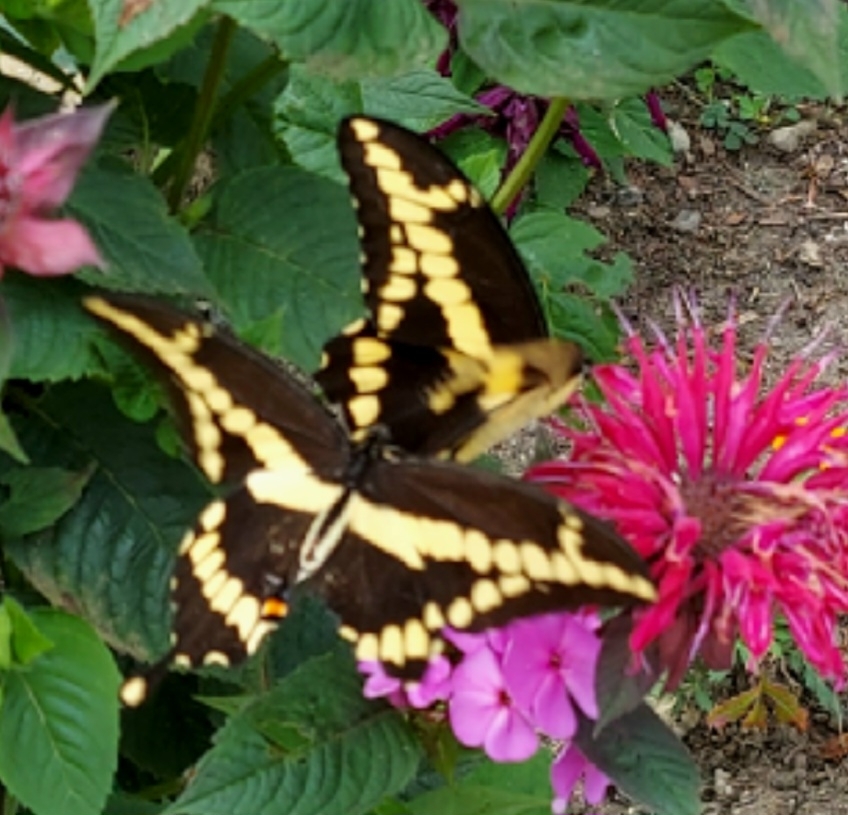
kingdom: Animalia
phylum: Arthropoda
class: Insecta
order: Lepidoptera
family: Papilionidae
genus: Papilio
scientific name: Papilio cresphontes
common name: Giant swallowtail
